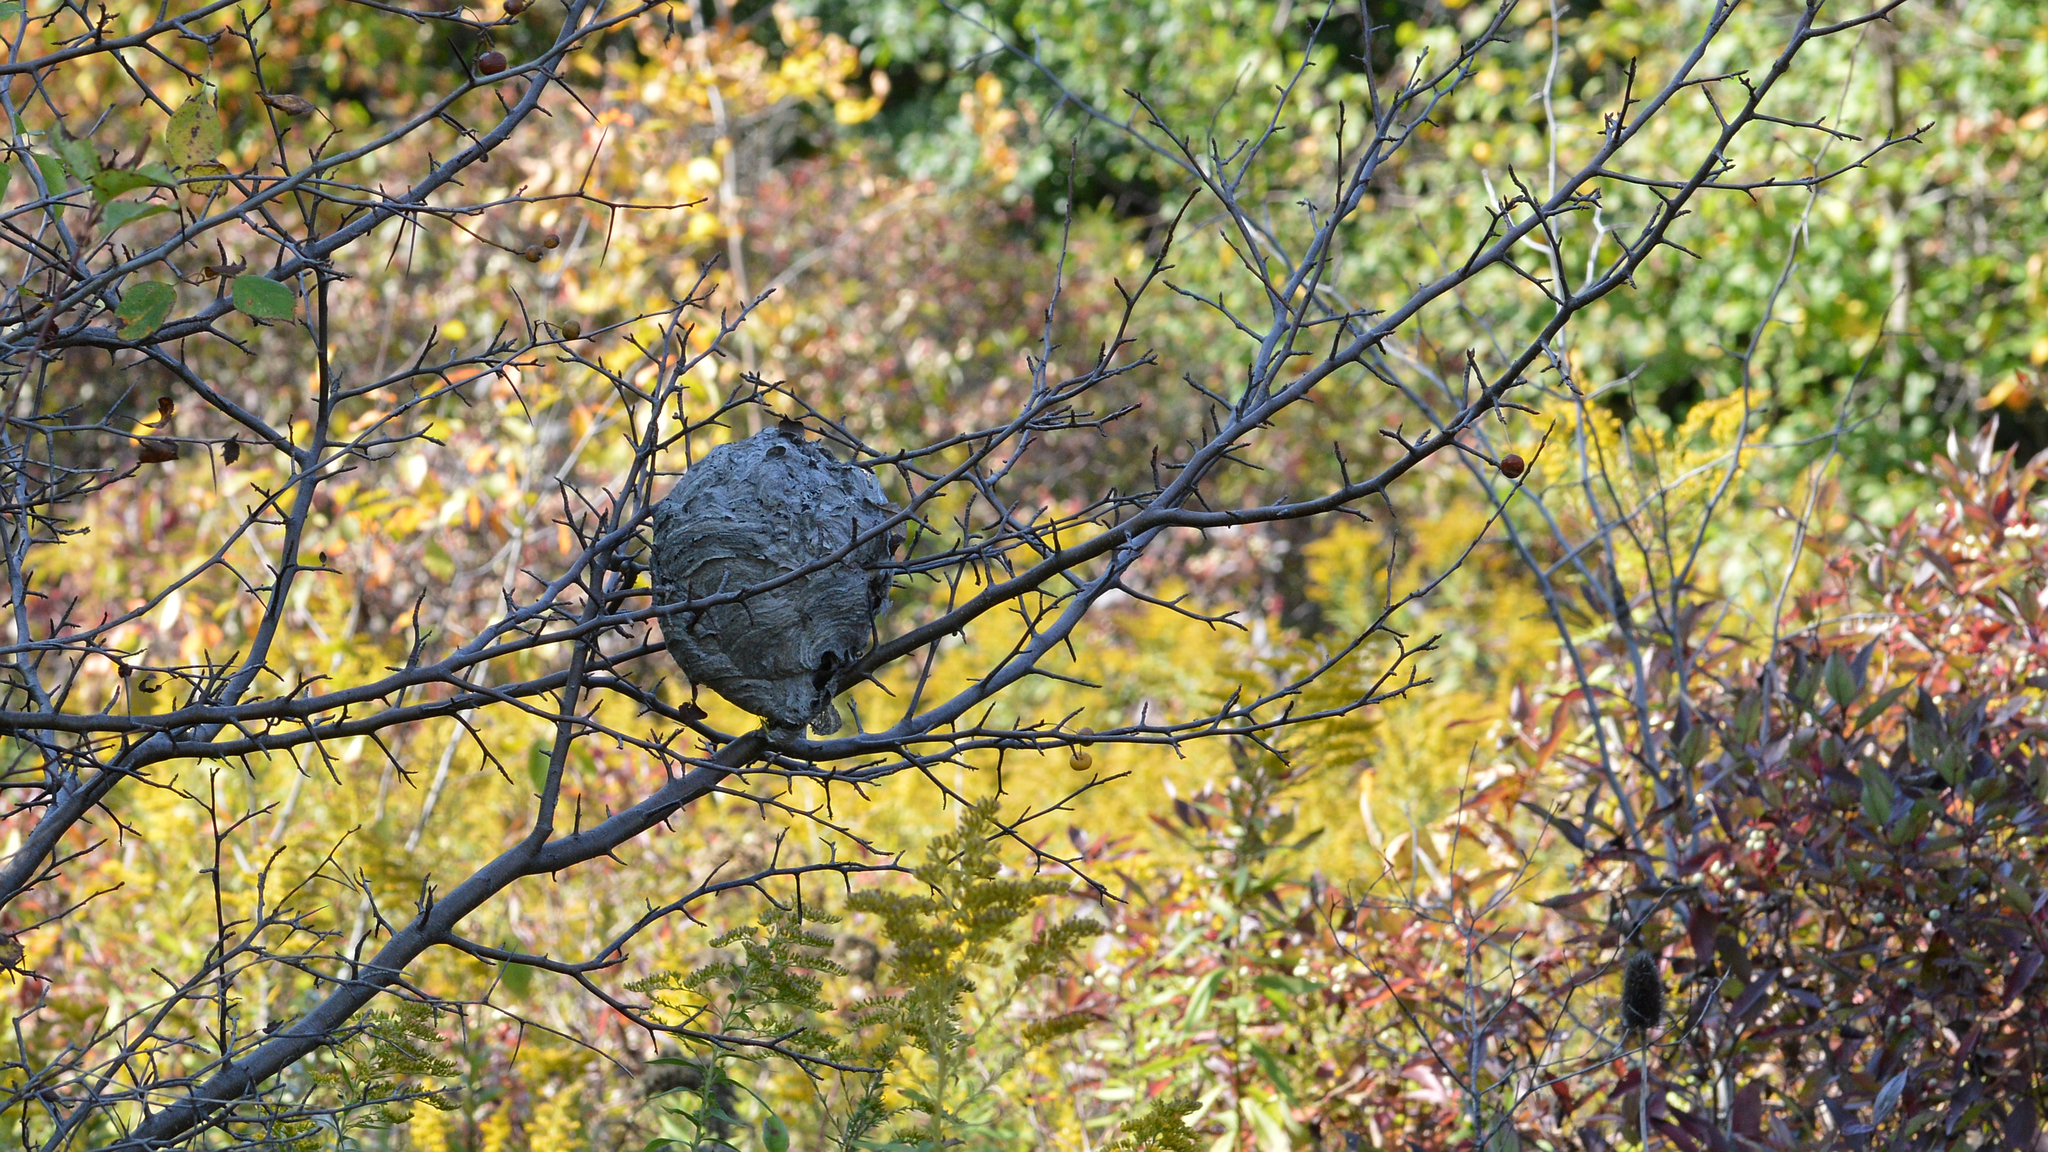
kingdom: Animalia
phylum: Arthropoda
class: Insecta
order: Hymenoptera
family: Vespidae
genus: Dolichovespula
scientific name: Dolichovespula
